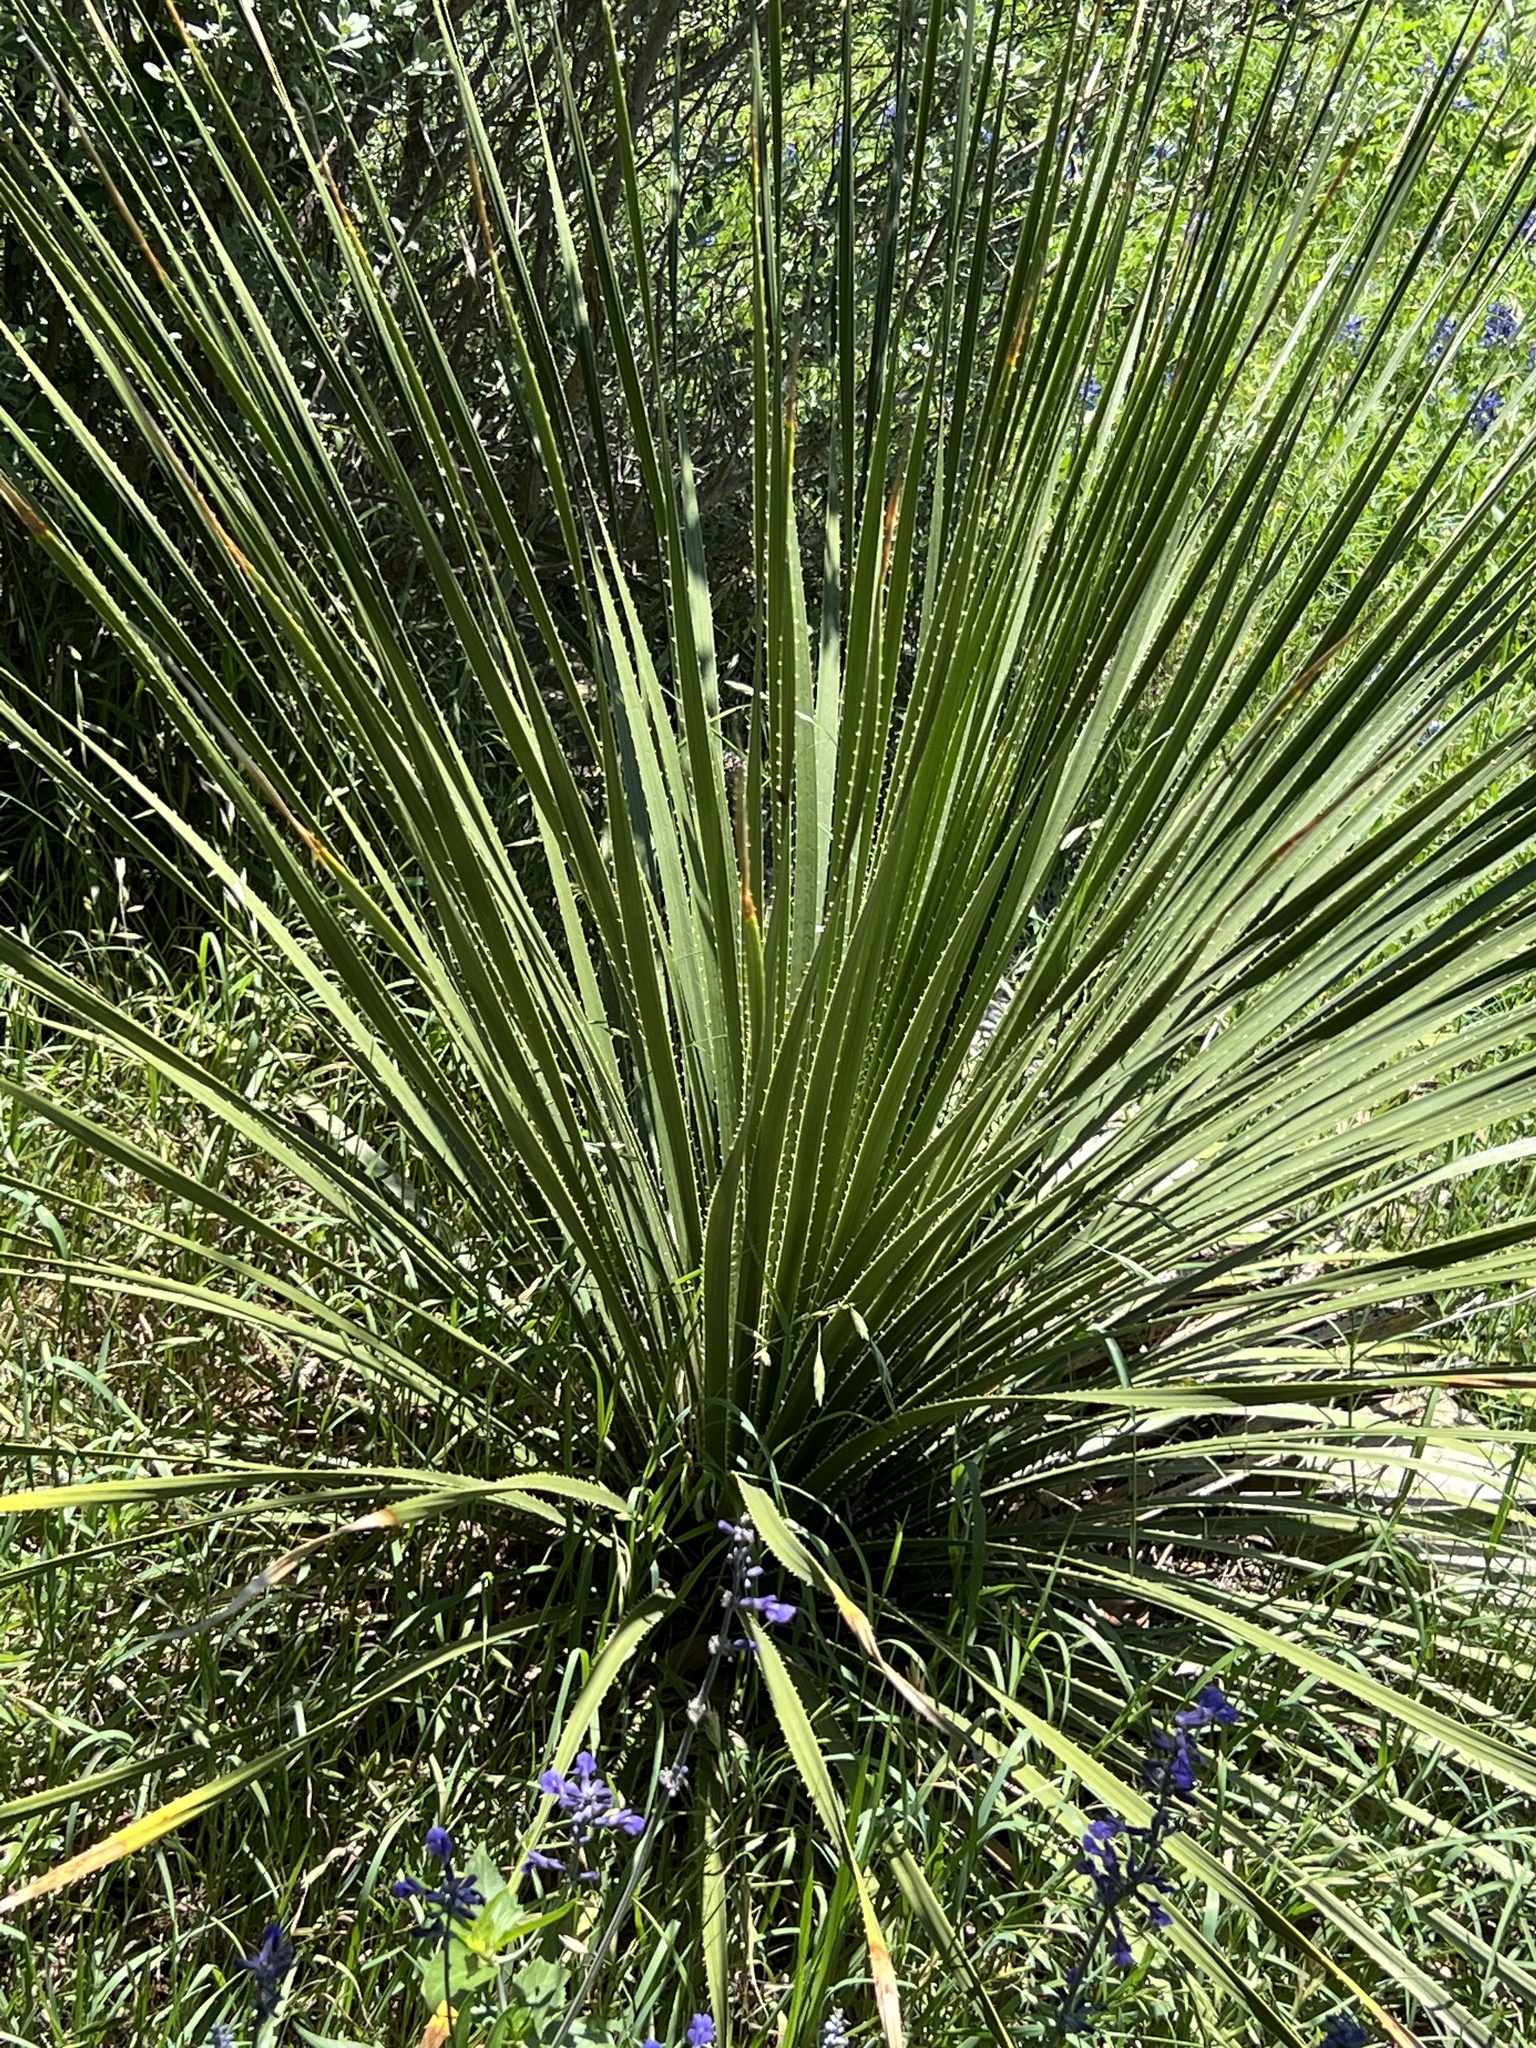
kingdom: Plantae
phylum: Tracheophyta
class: Liliopsida
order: Asparagales
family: Asparagaceae
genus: Dasylirion
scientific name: Dasylirion texanum
